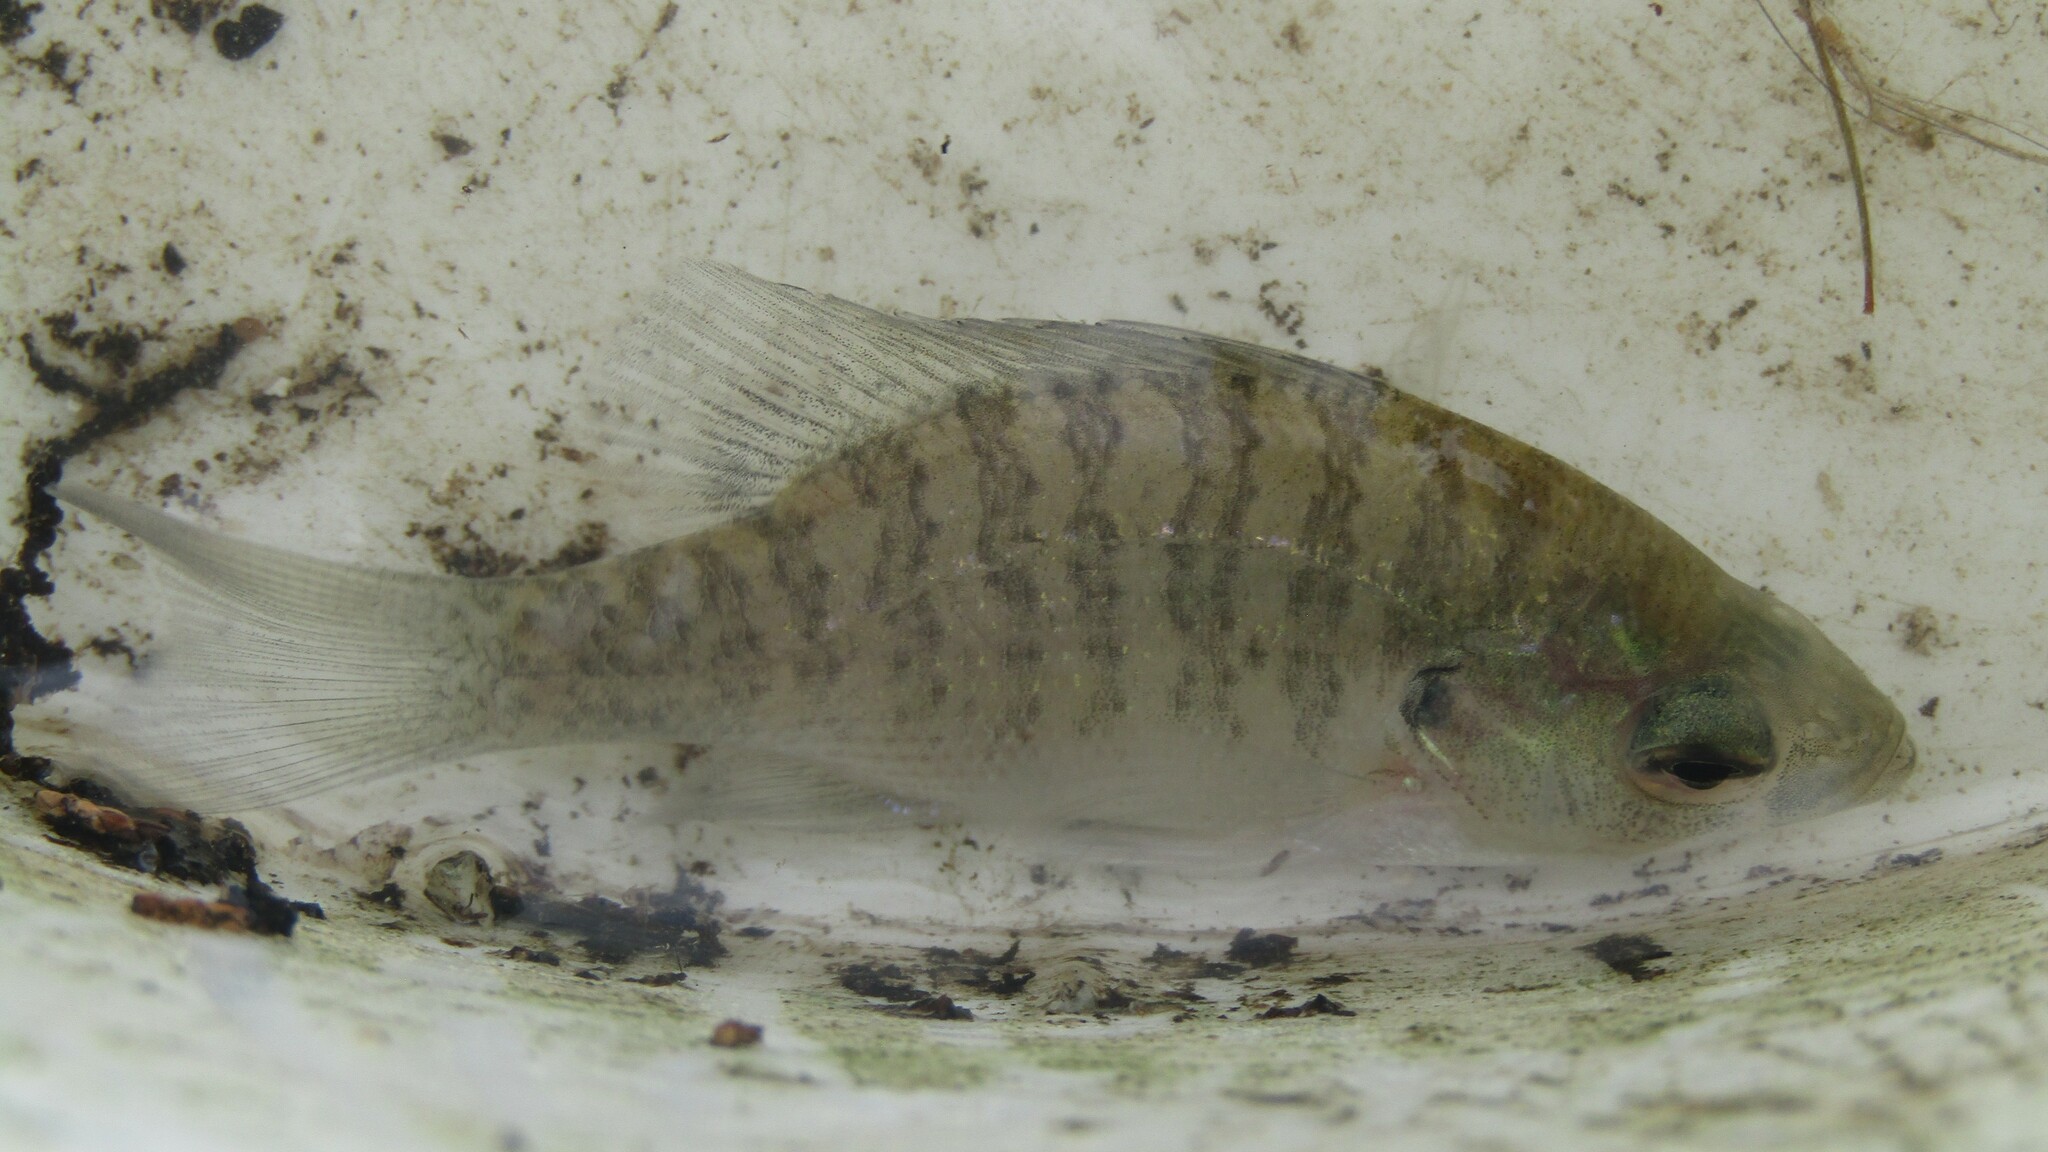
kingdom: Animalia
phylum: Chordata
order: Perciformes
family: Centrarchidae
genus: Lepomis
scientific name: Lepomis macrochirus
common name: Bluegill
